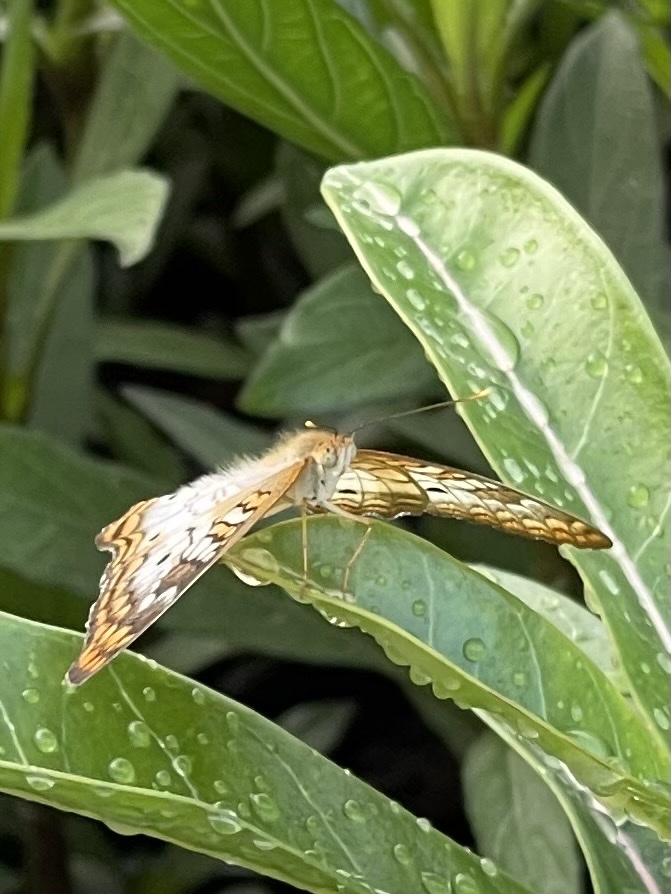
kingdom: Animalia
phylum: Arthropoda
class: Insecta
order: Lepidoptera
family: Nymphalidae
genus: Anartia
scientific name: Anartia jatrophae
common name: White peacock
